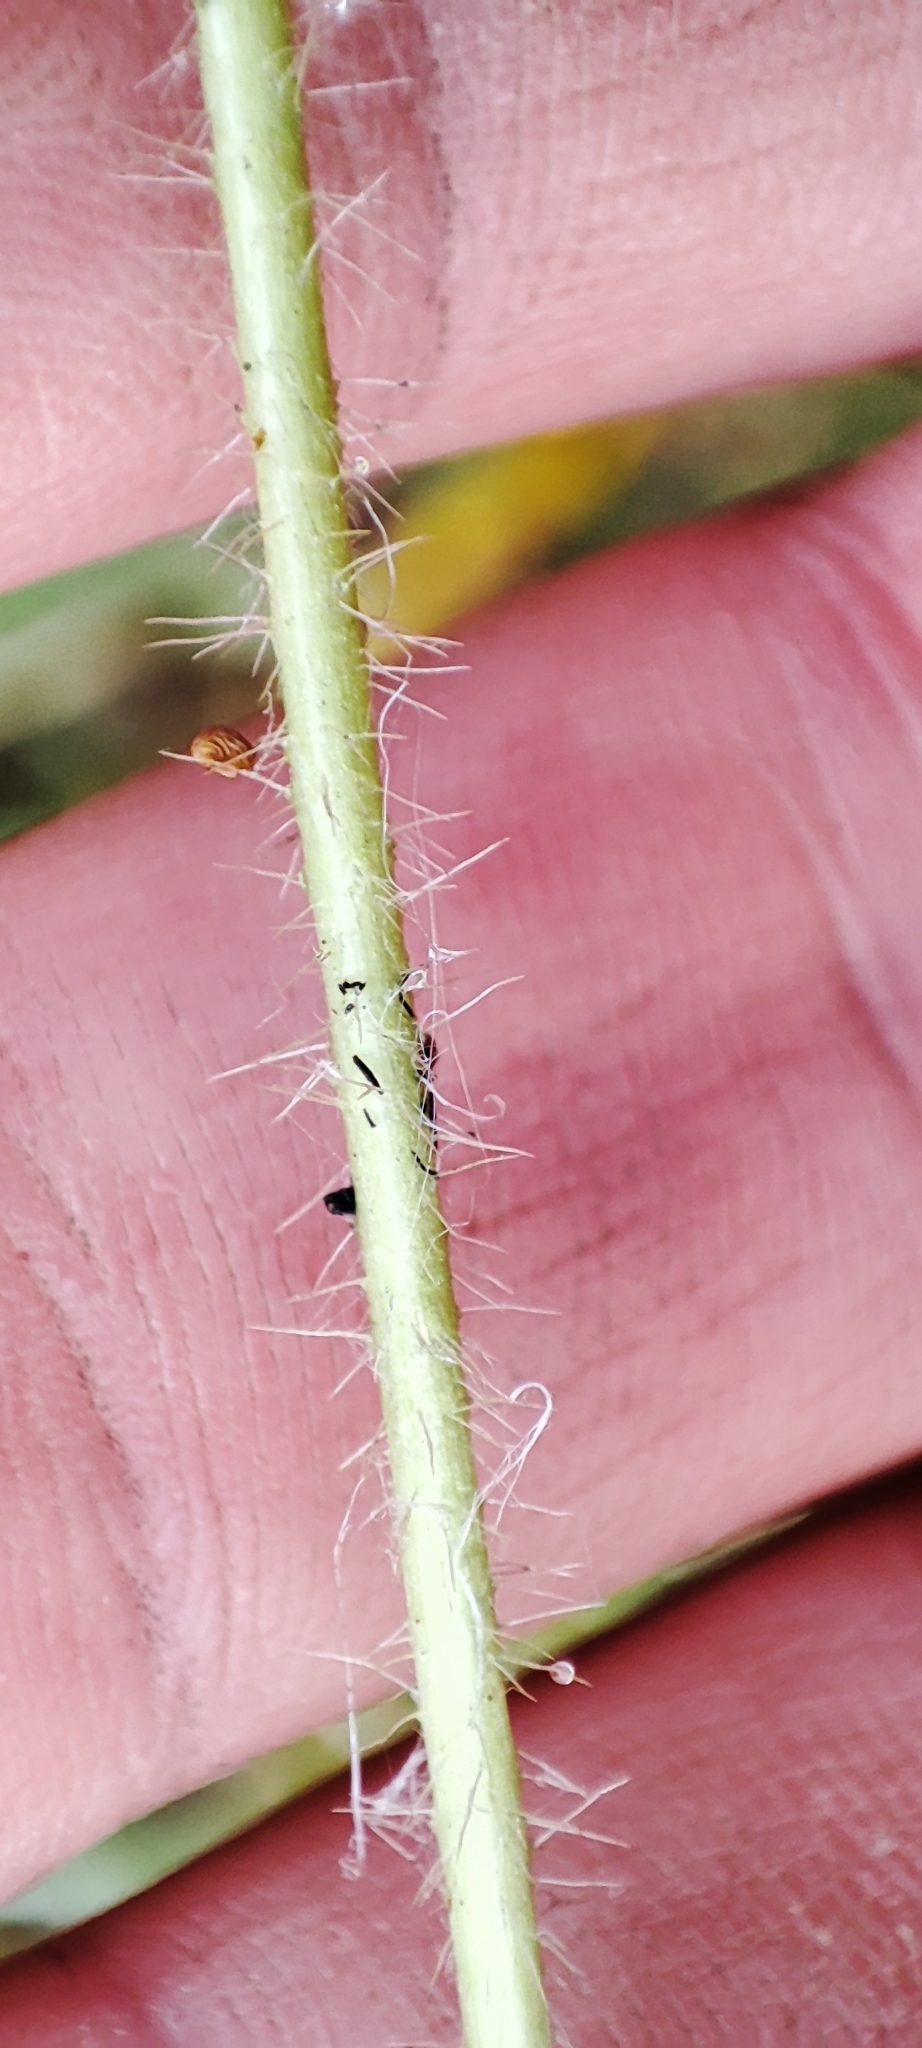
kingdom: Plantae
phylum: Tracheophyta
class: Magnoliopsida
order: Rosales
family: Rosaceae
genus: Potentilla
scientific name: Potentilla norvegica
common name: Ternate-leaved cinquefoil
